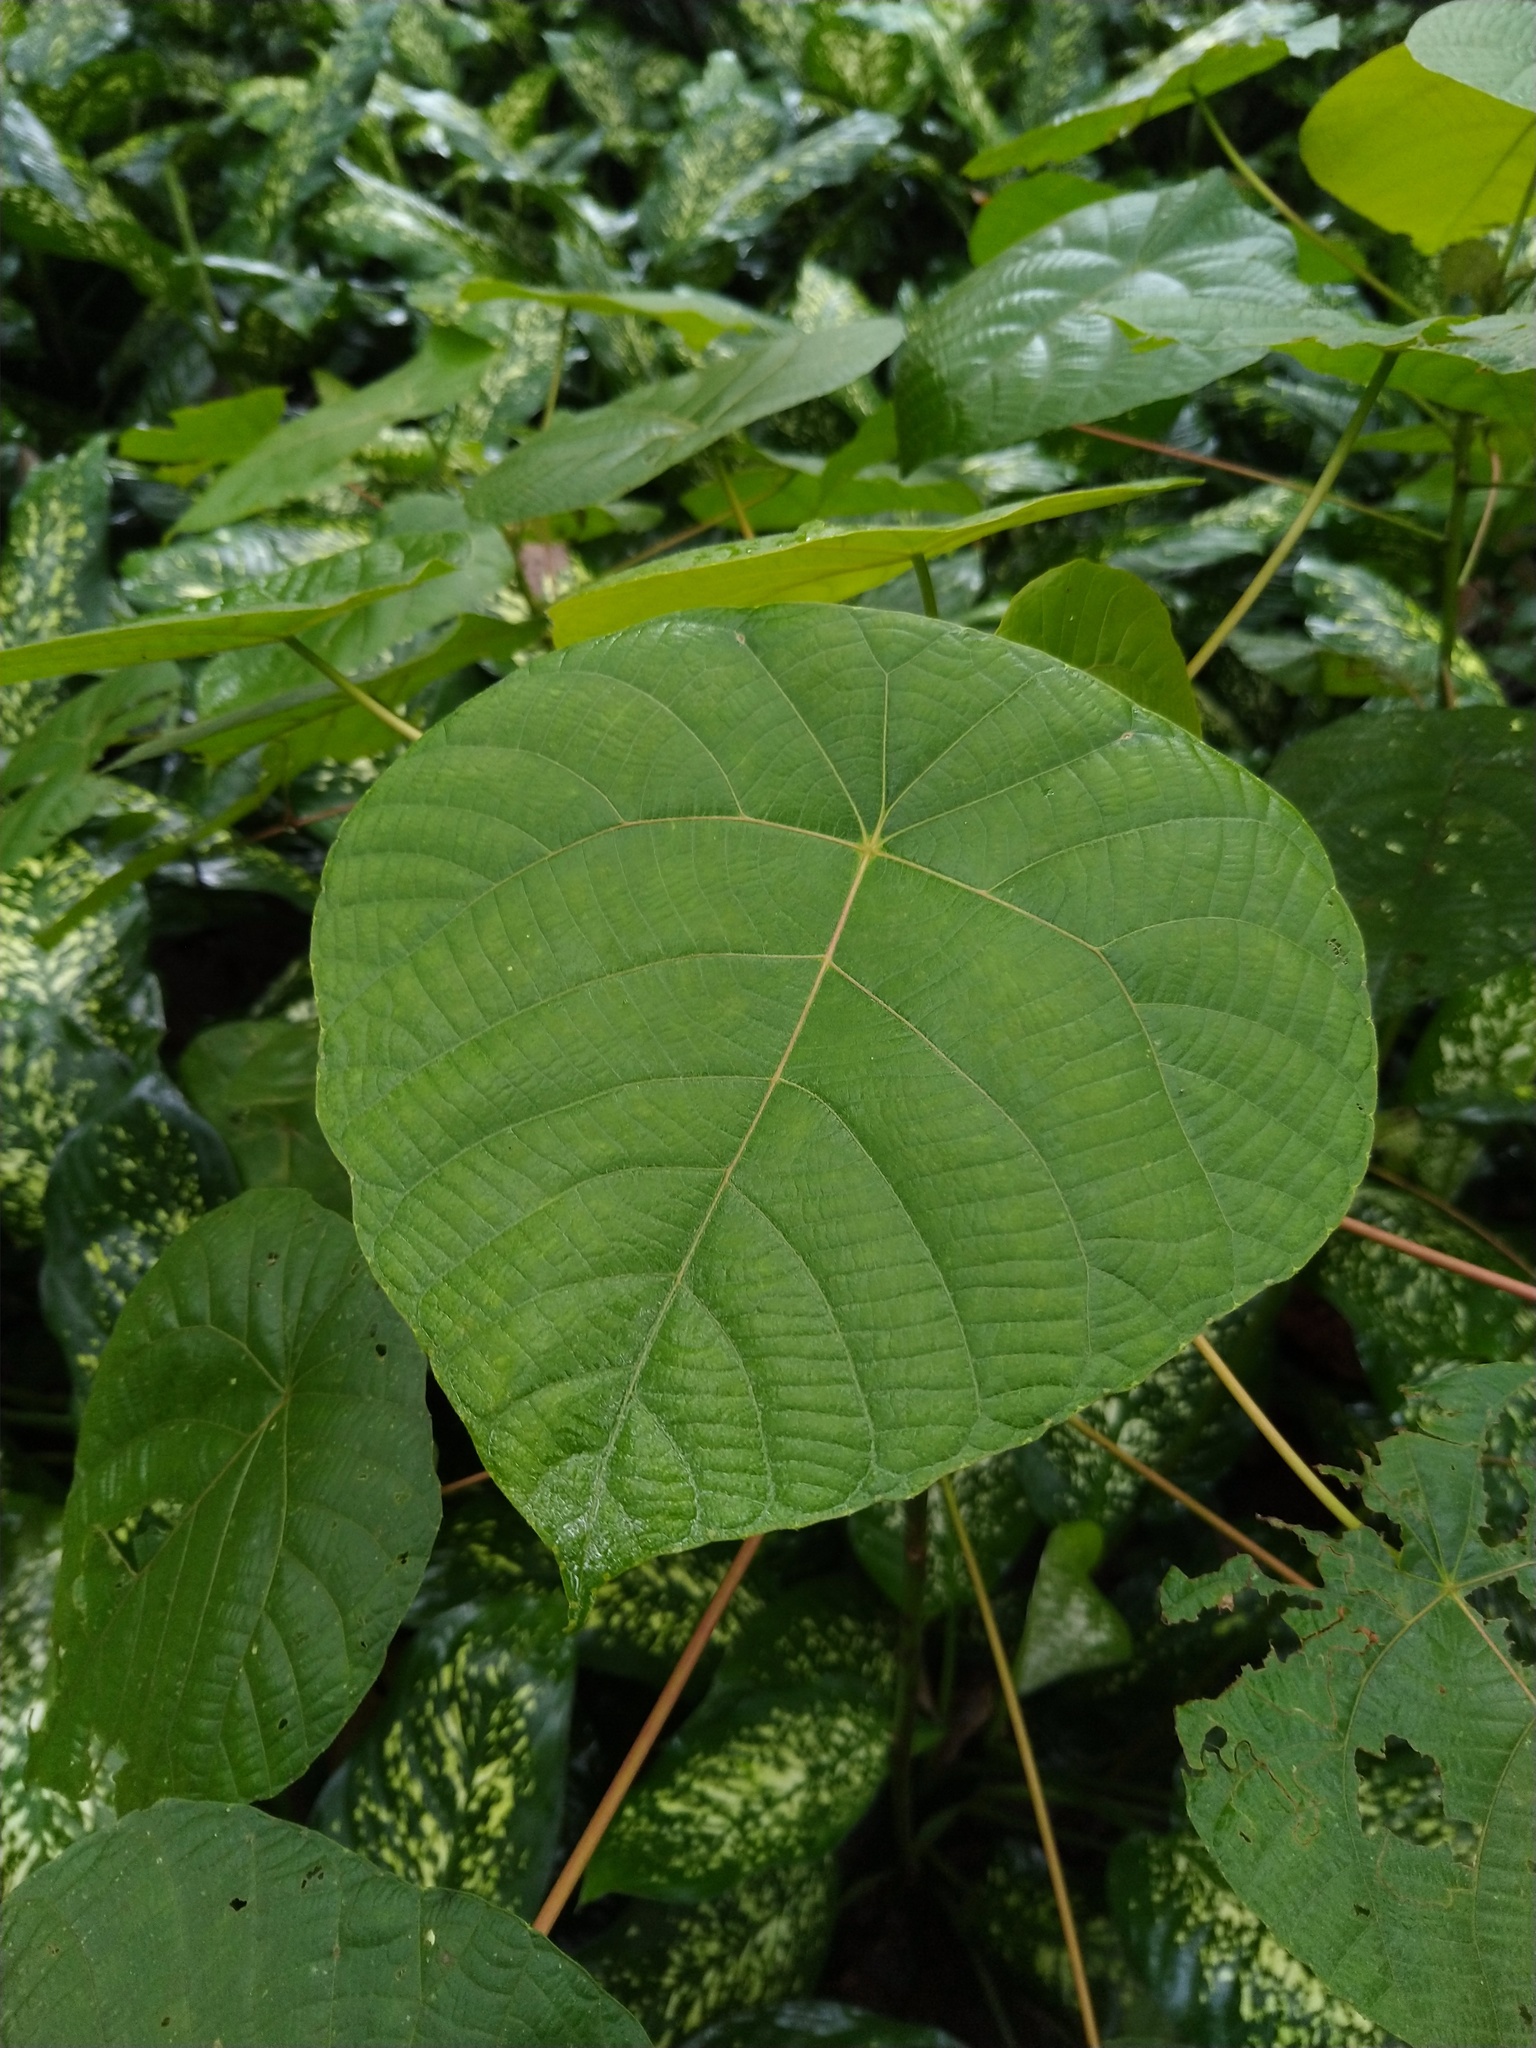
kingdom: Plantae
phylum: Tracheophyta
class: Magnoliopsida
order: Malpighiales
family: Euphorbiaceae
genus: Macaranga
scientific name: Macaranga peltata
